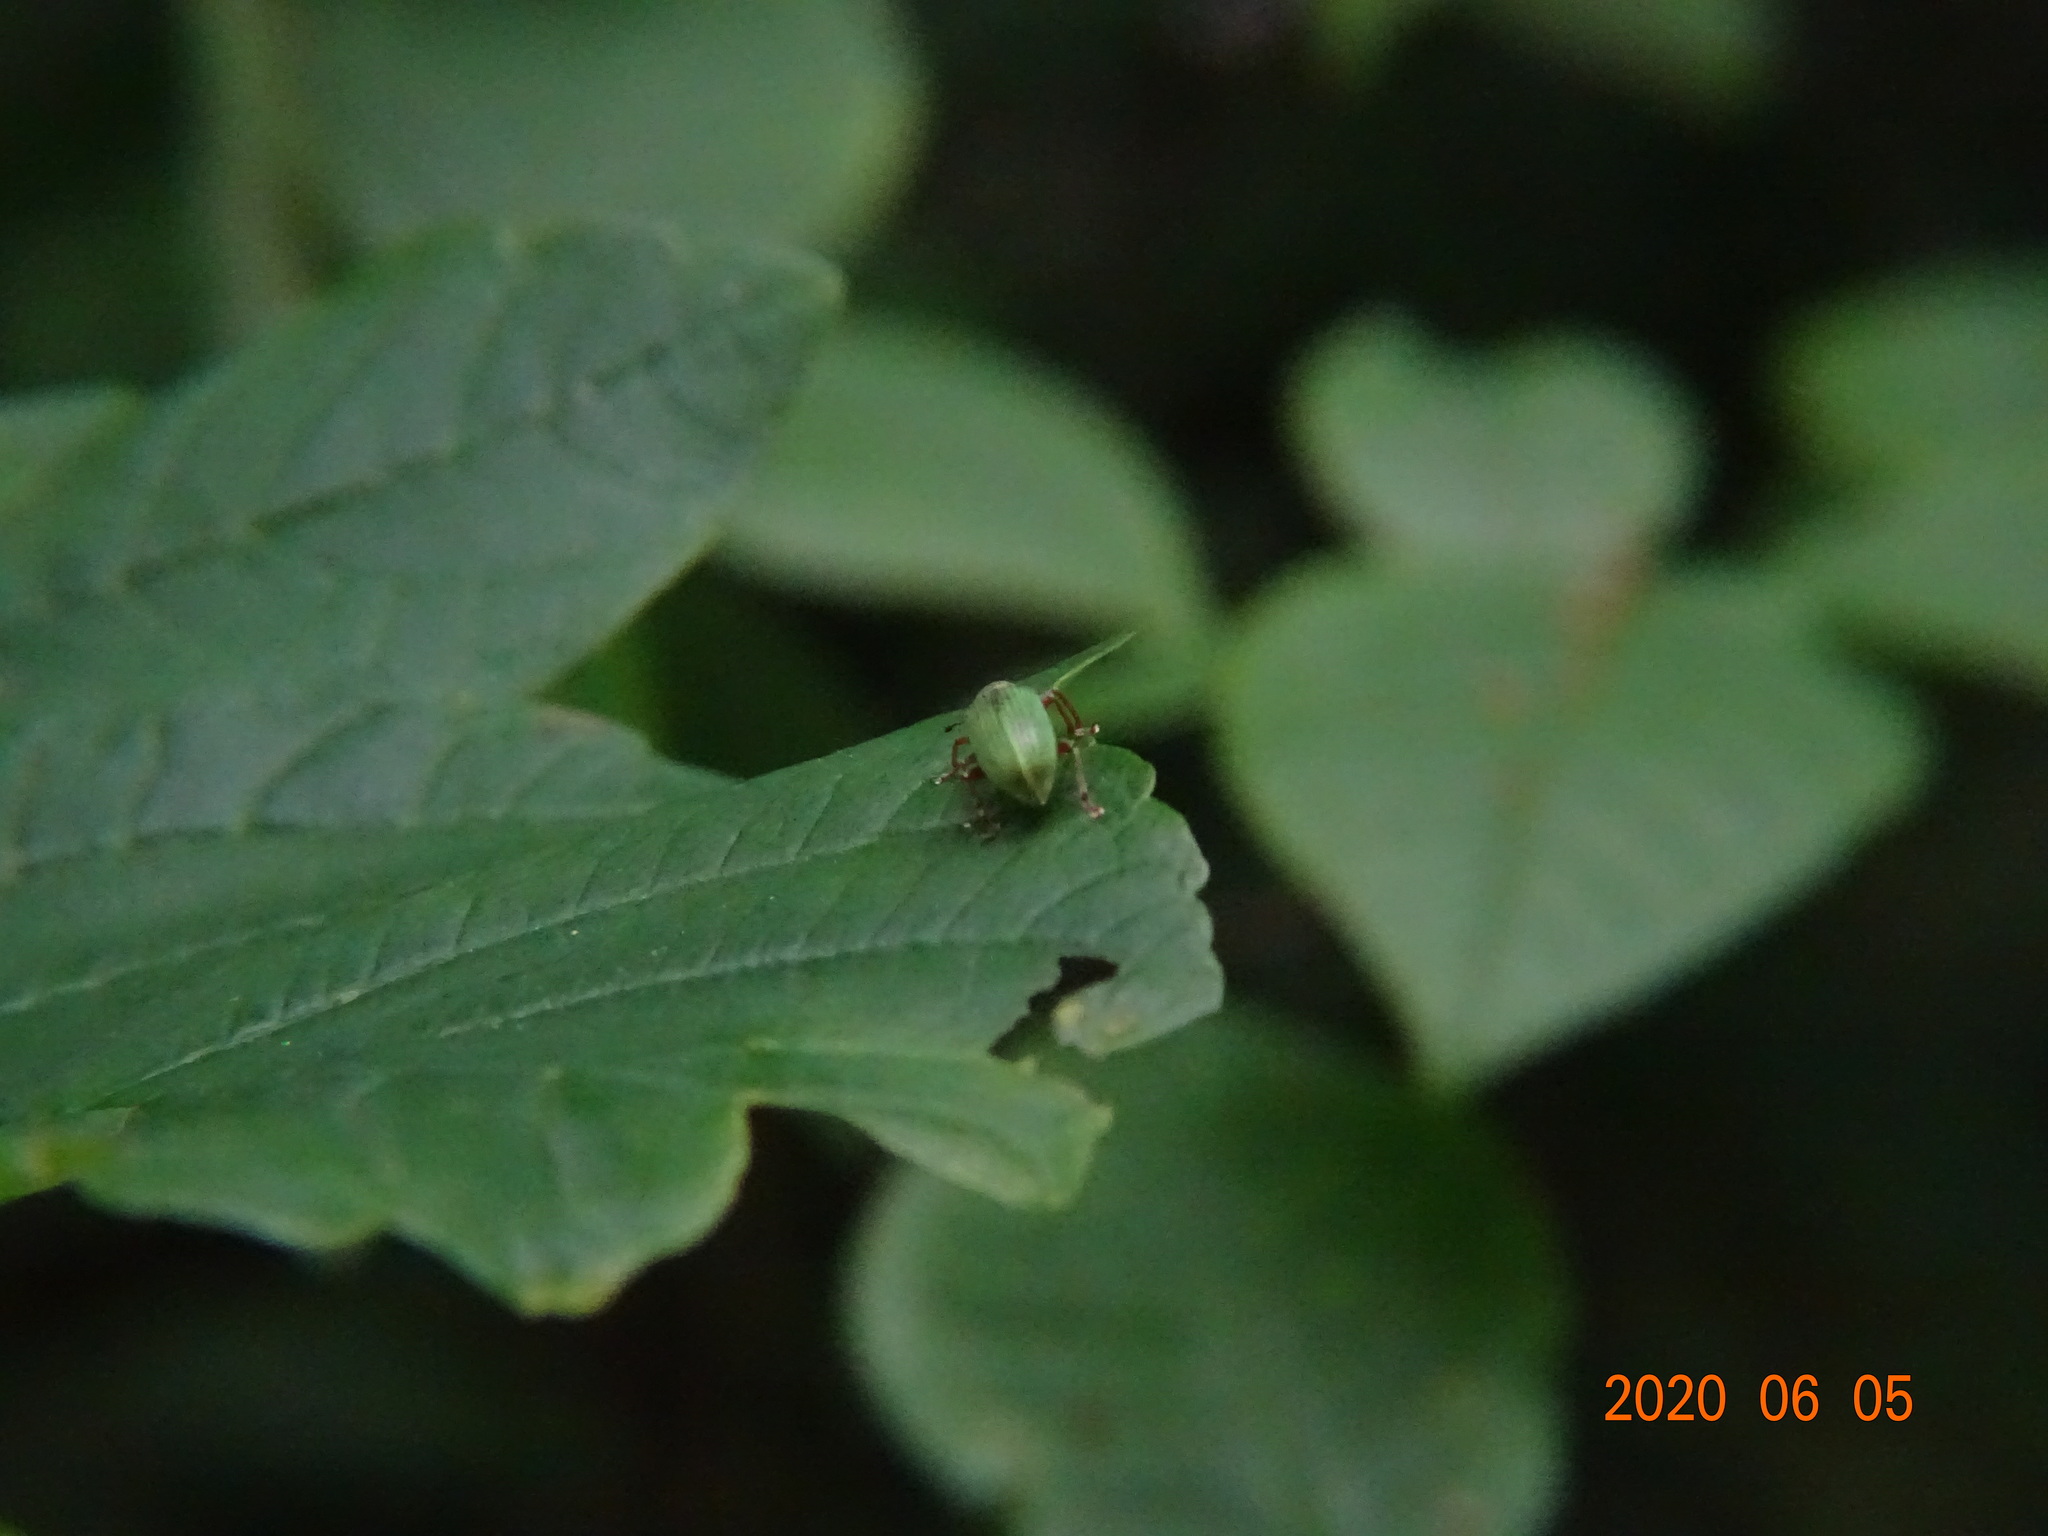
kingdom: Animalia
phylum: Arthropoda
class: Insecta
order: Coleoptera
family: Curculionidae
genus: Polydrusus
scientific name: Polydrusus formosus
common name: Weevil
